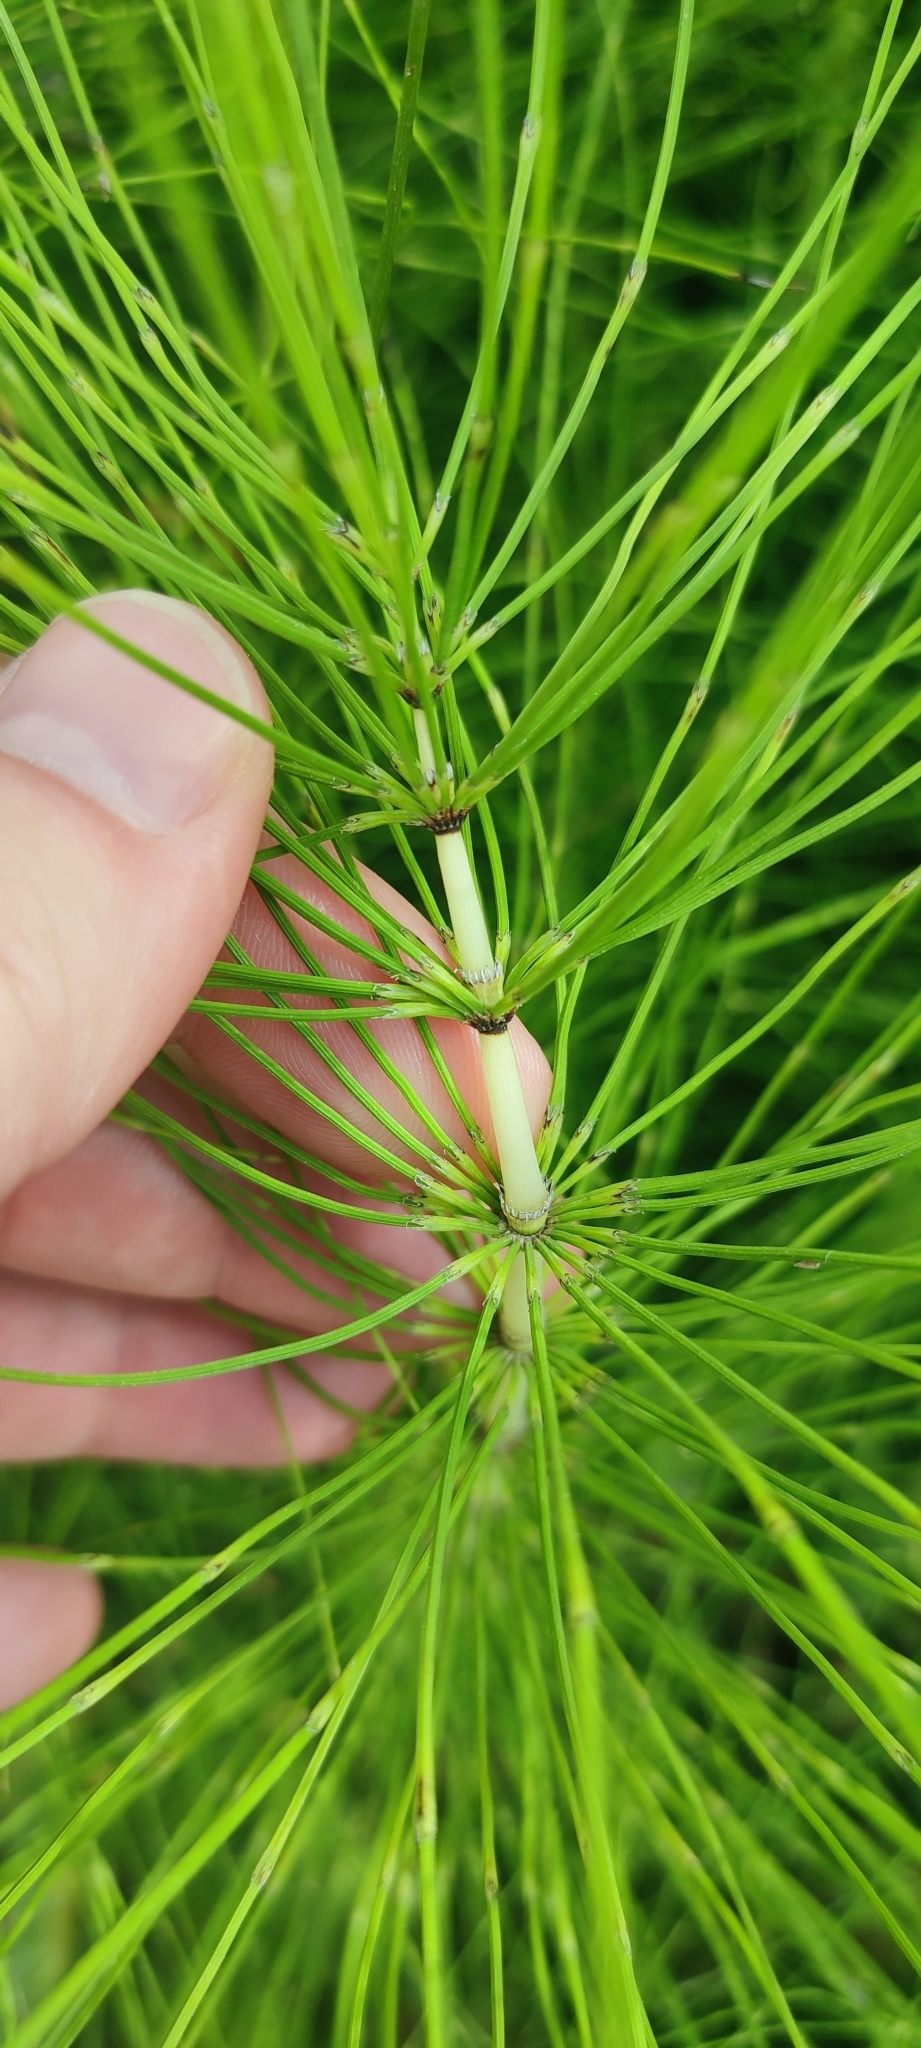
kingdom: Plantae
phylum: Tracheophyta
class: Polypodiopsida
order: Equisetales
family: Equisetaceae
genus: Equisetum
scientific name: Equisetum telmateia
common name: Great horsetail
